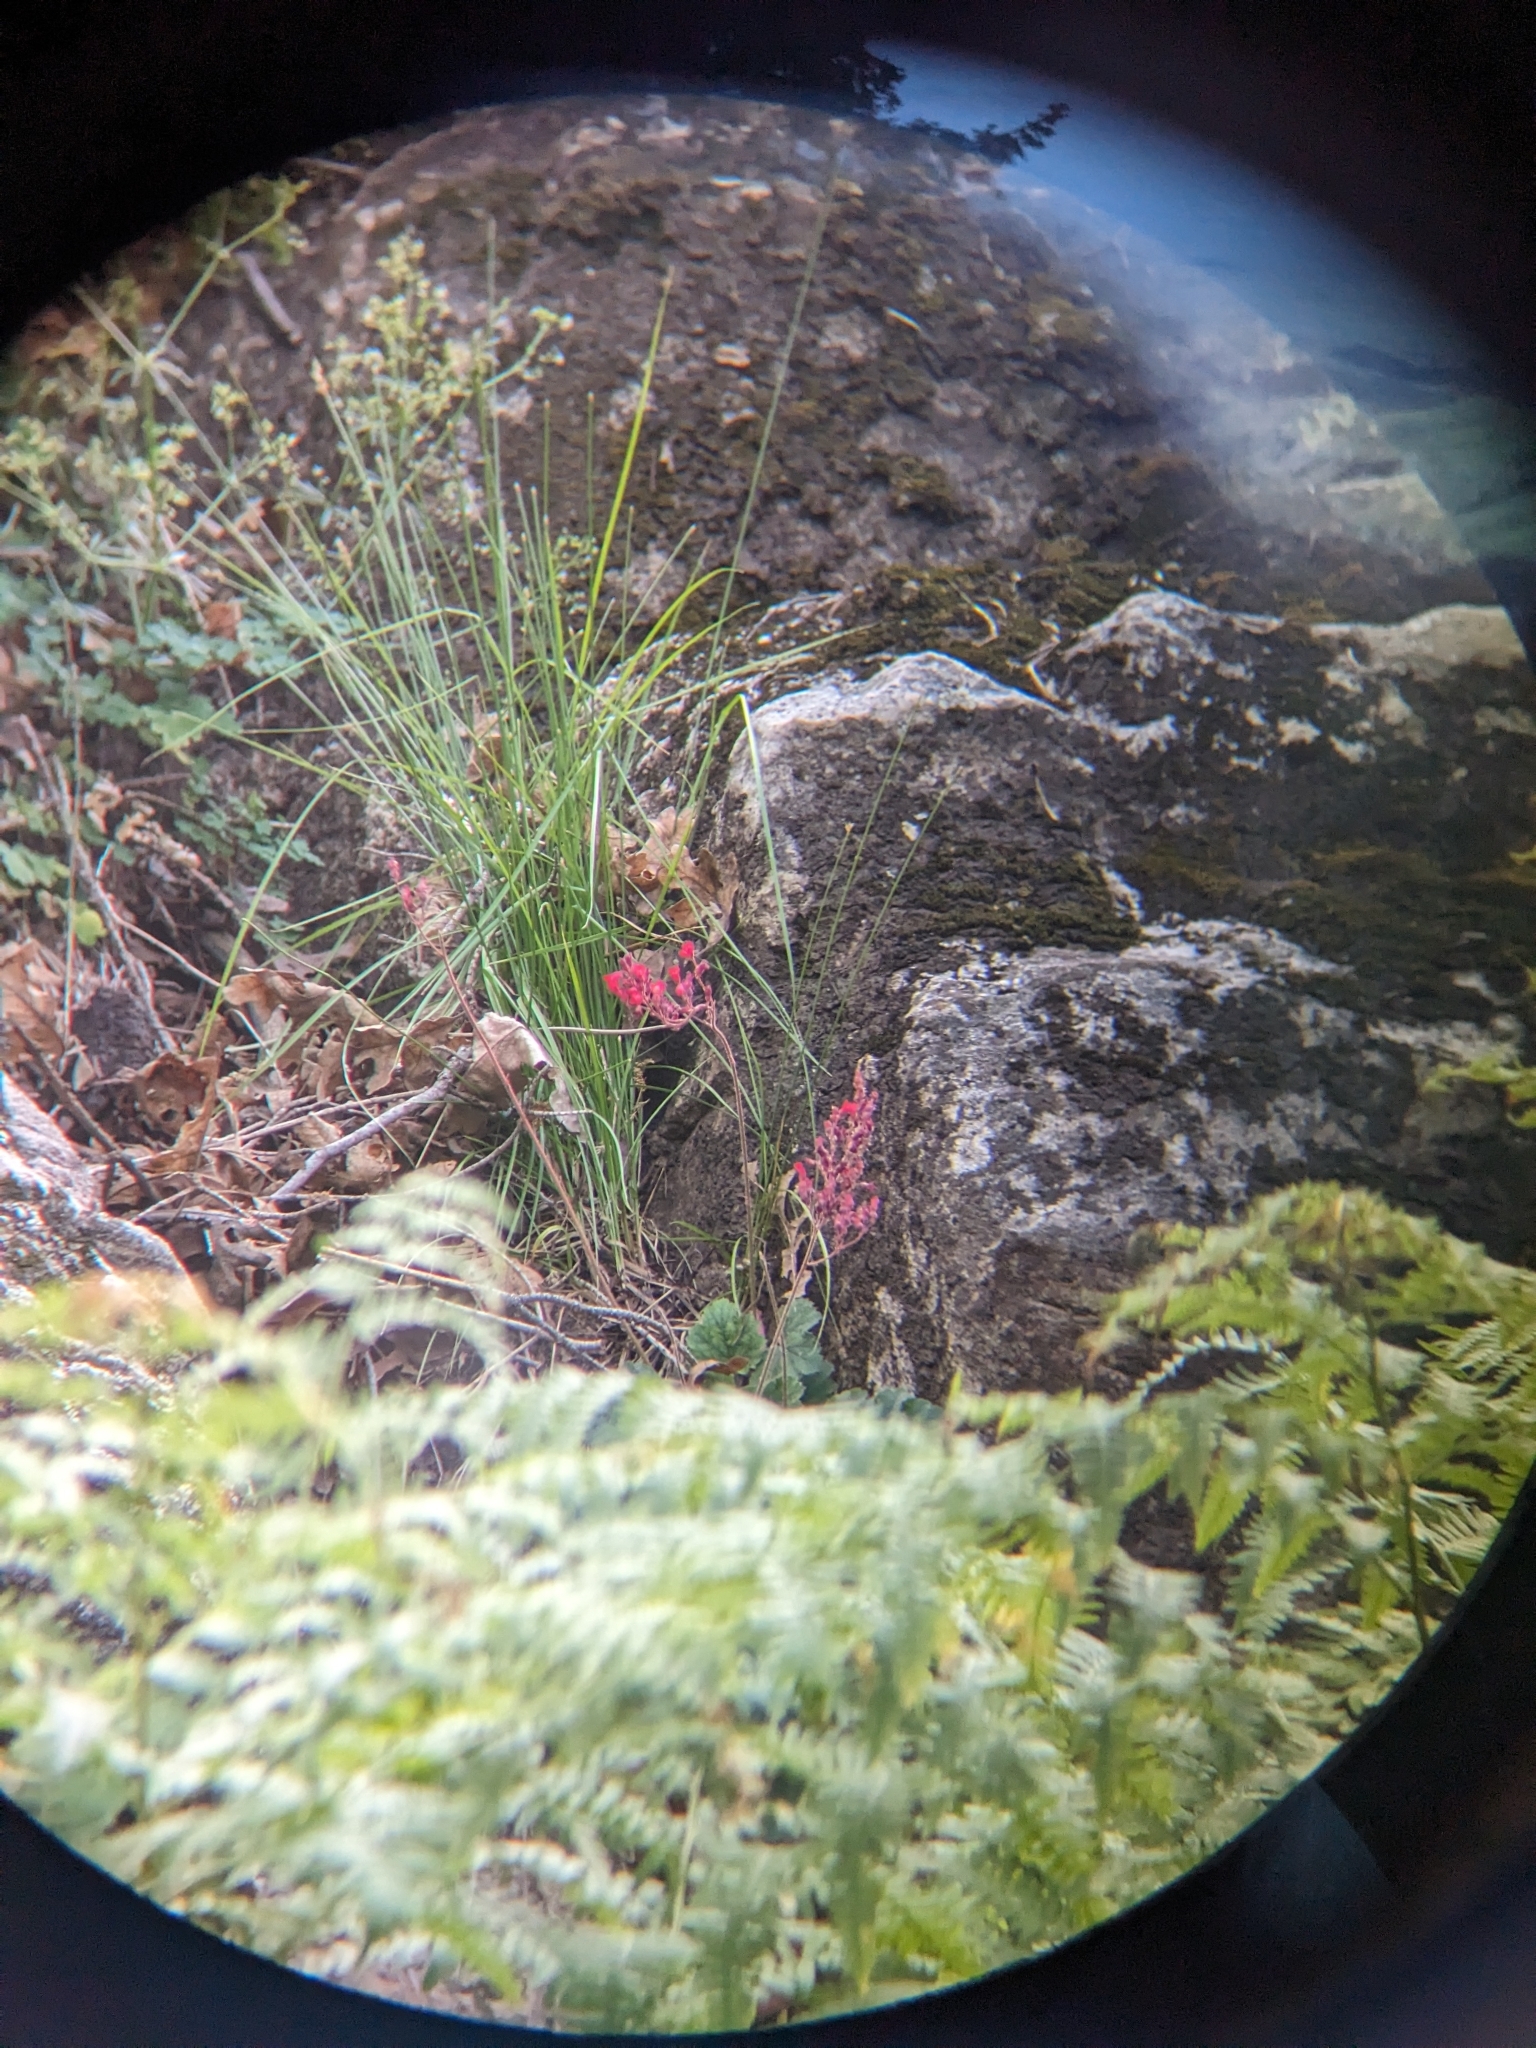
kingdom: Plantae
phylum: Tracheophyta
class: Magnoliopsida
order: Saxifragales
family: Saxifragaceae
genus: Heuchera
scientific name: Heuchera sanguinea
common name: Coralbells
